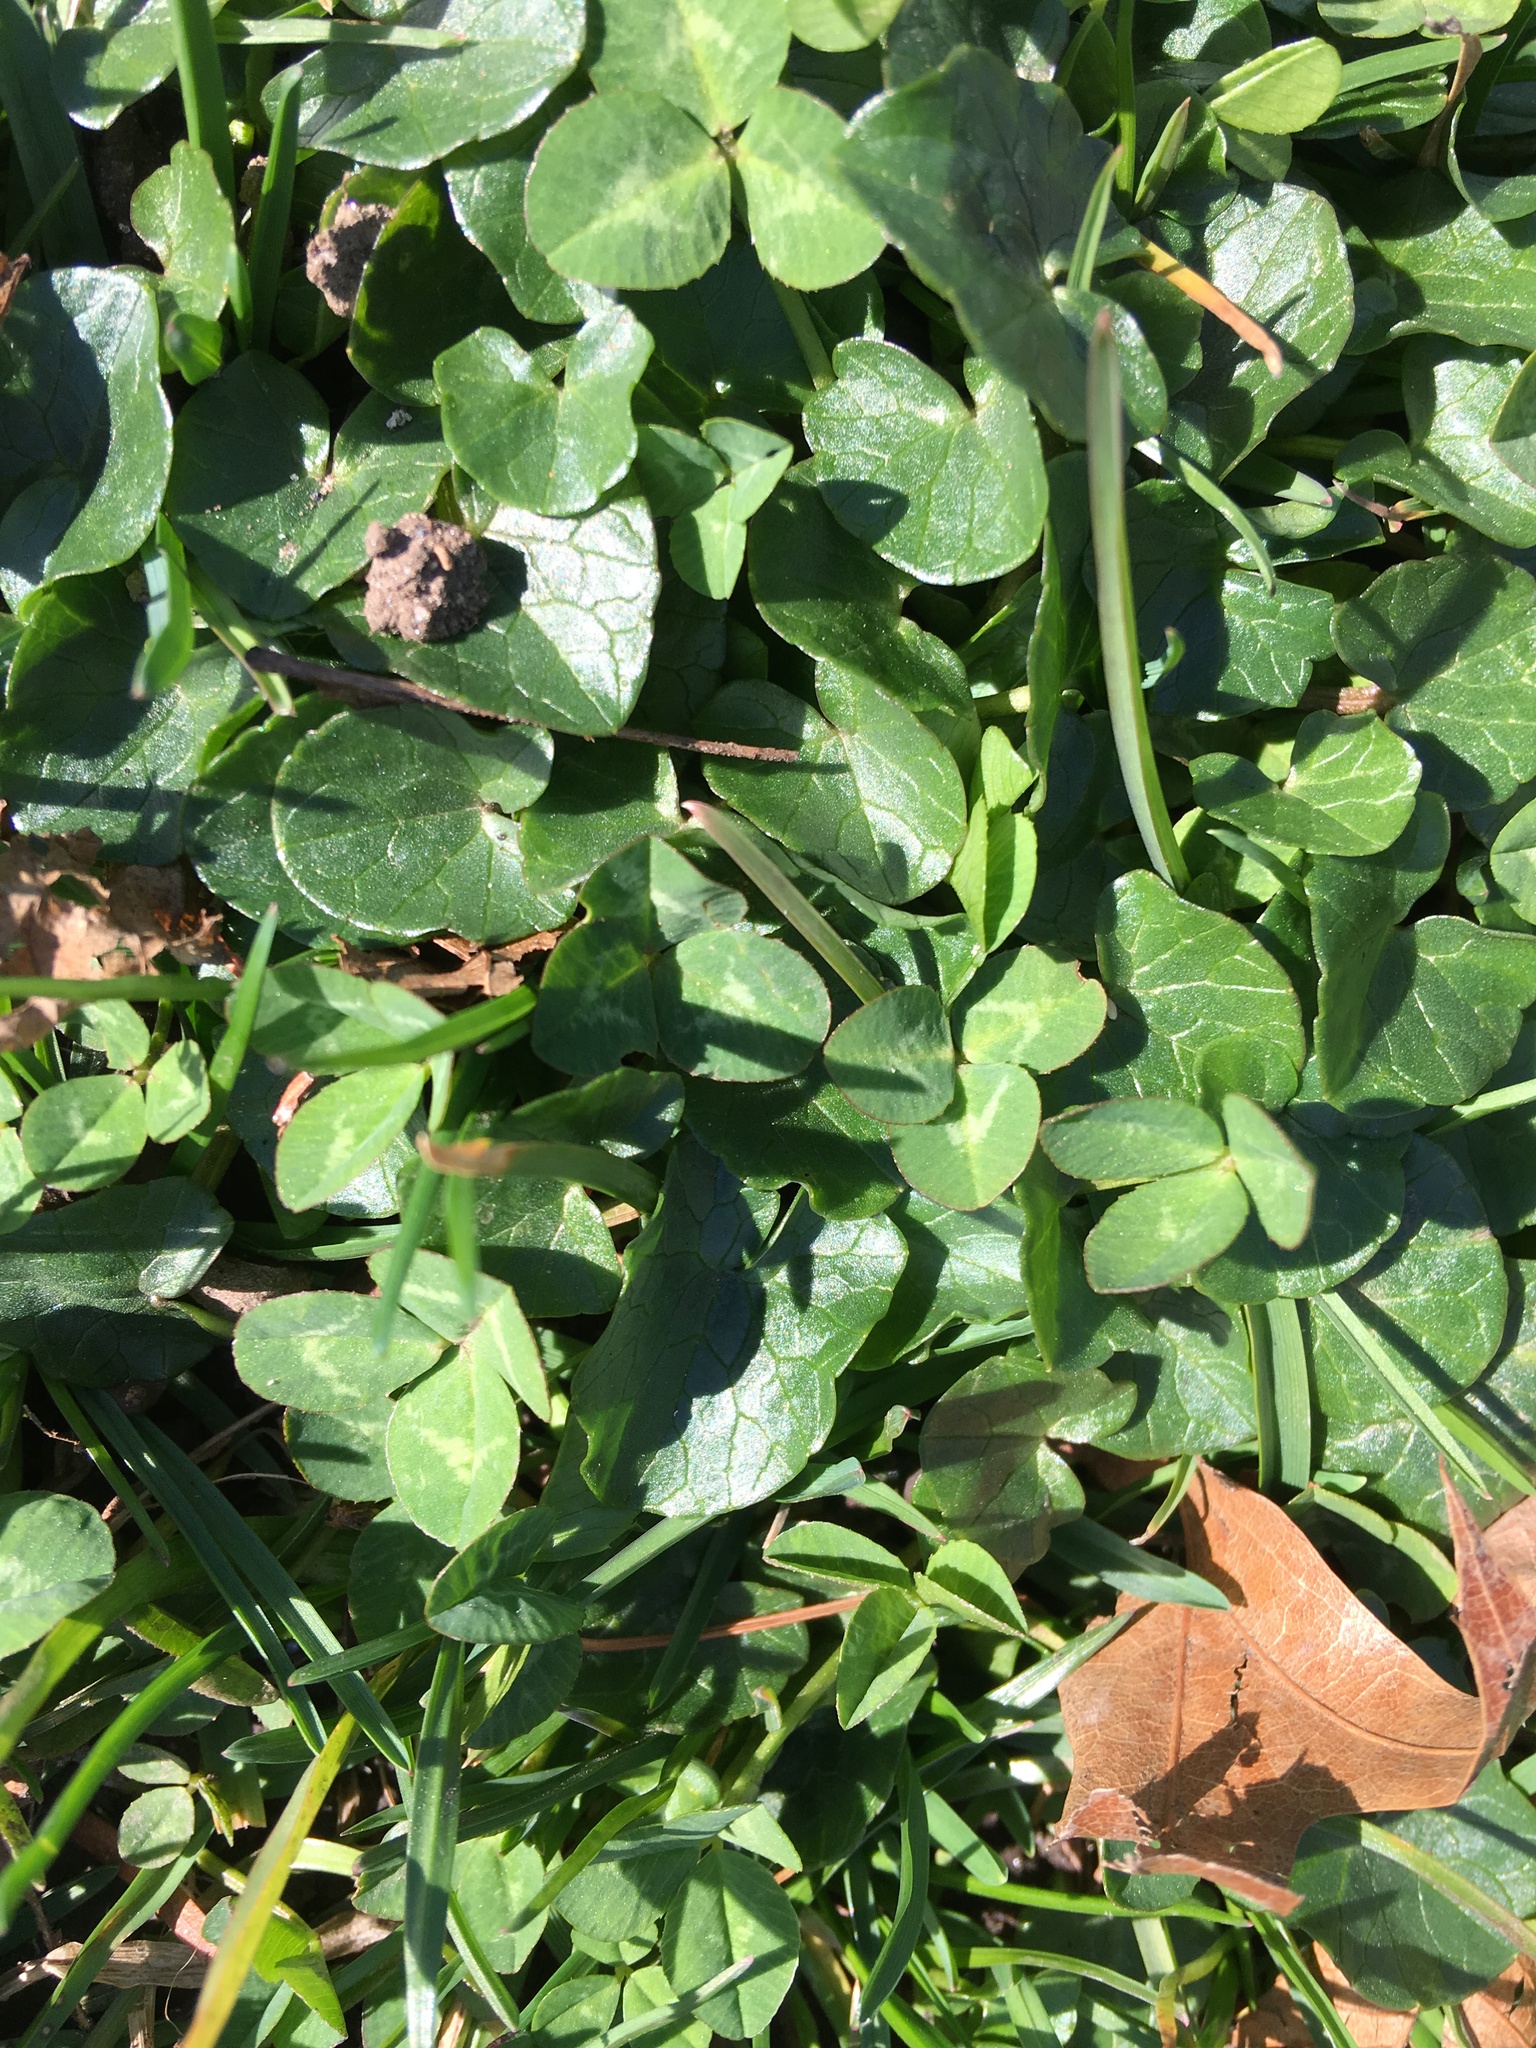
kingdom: Plantae
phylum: Tracheophyta
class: Magnoliopsida
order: Ranunculales
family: Ranunculaceae
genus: Ficaria
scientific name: Ficaria verna
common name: Lesser celandine
